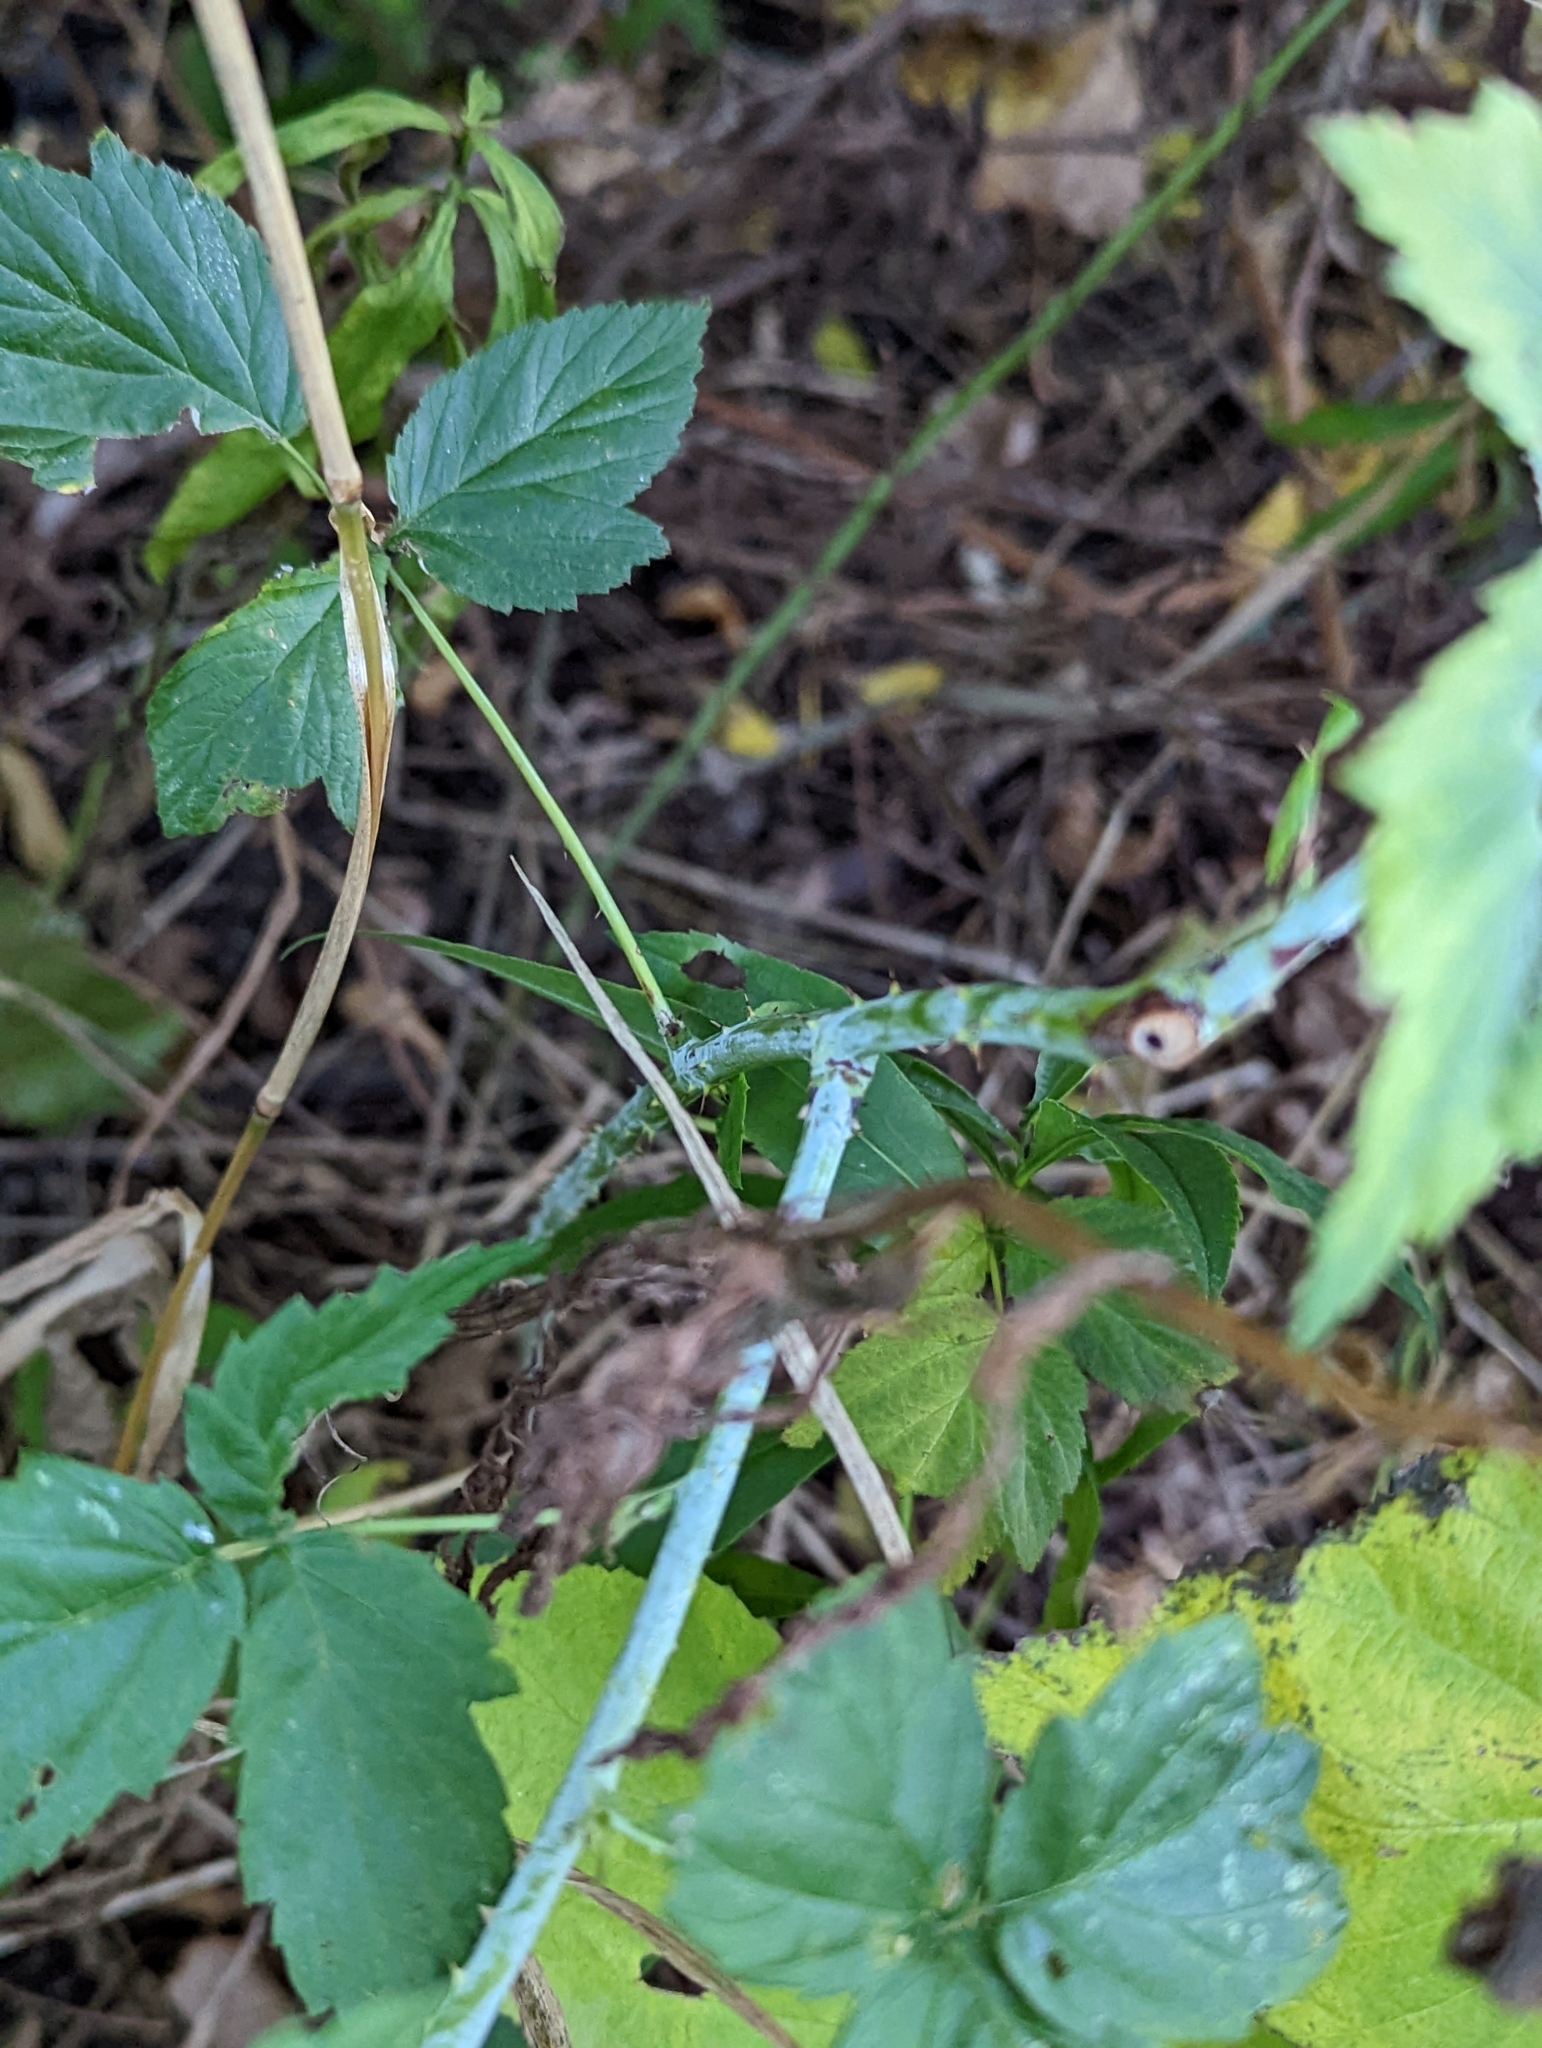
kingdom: Plantae
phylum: Tracheophyta
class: Magnoliopsida
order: Rosales
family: Rosaceae
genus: Rubus
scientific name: Rubus occidentalis
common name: Black raspberry
